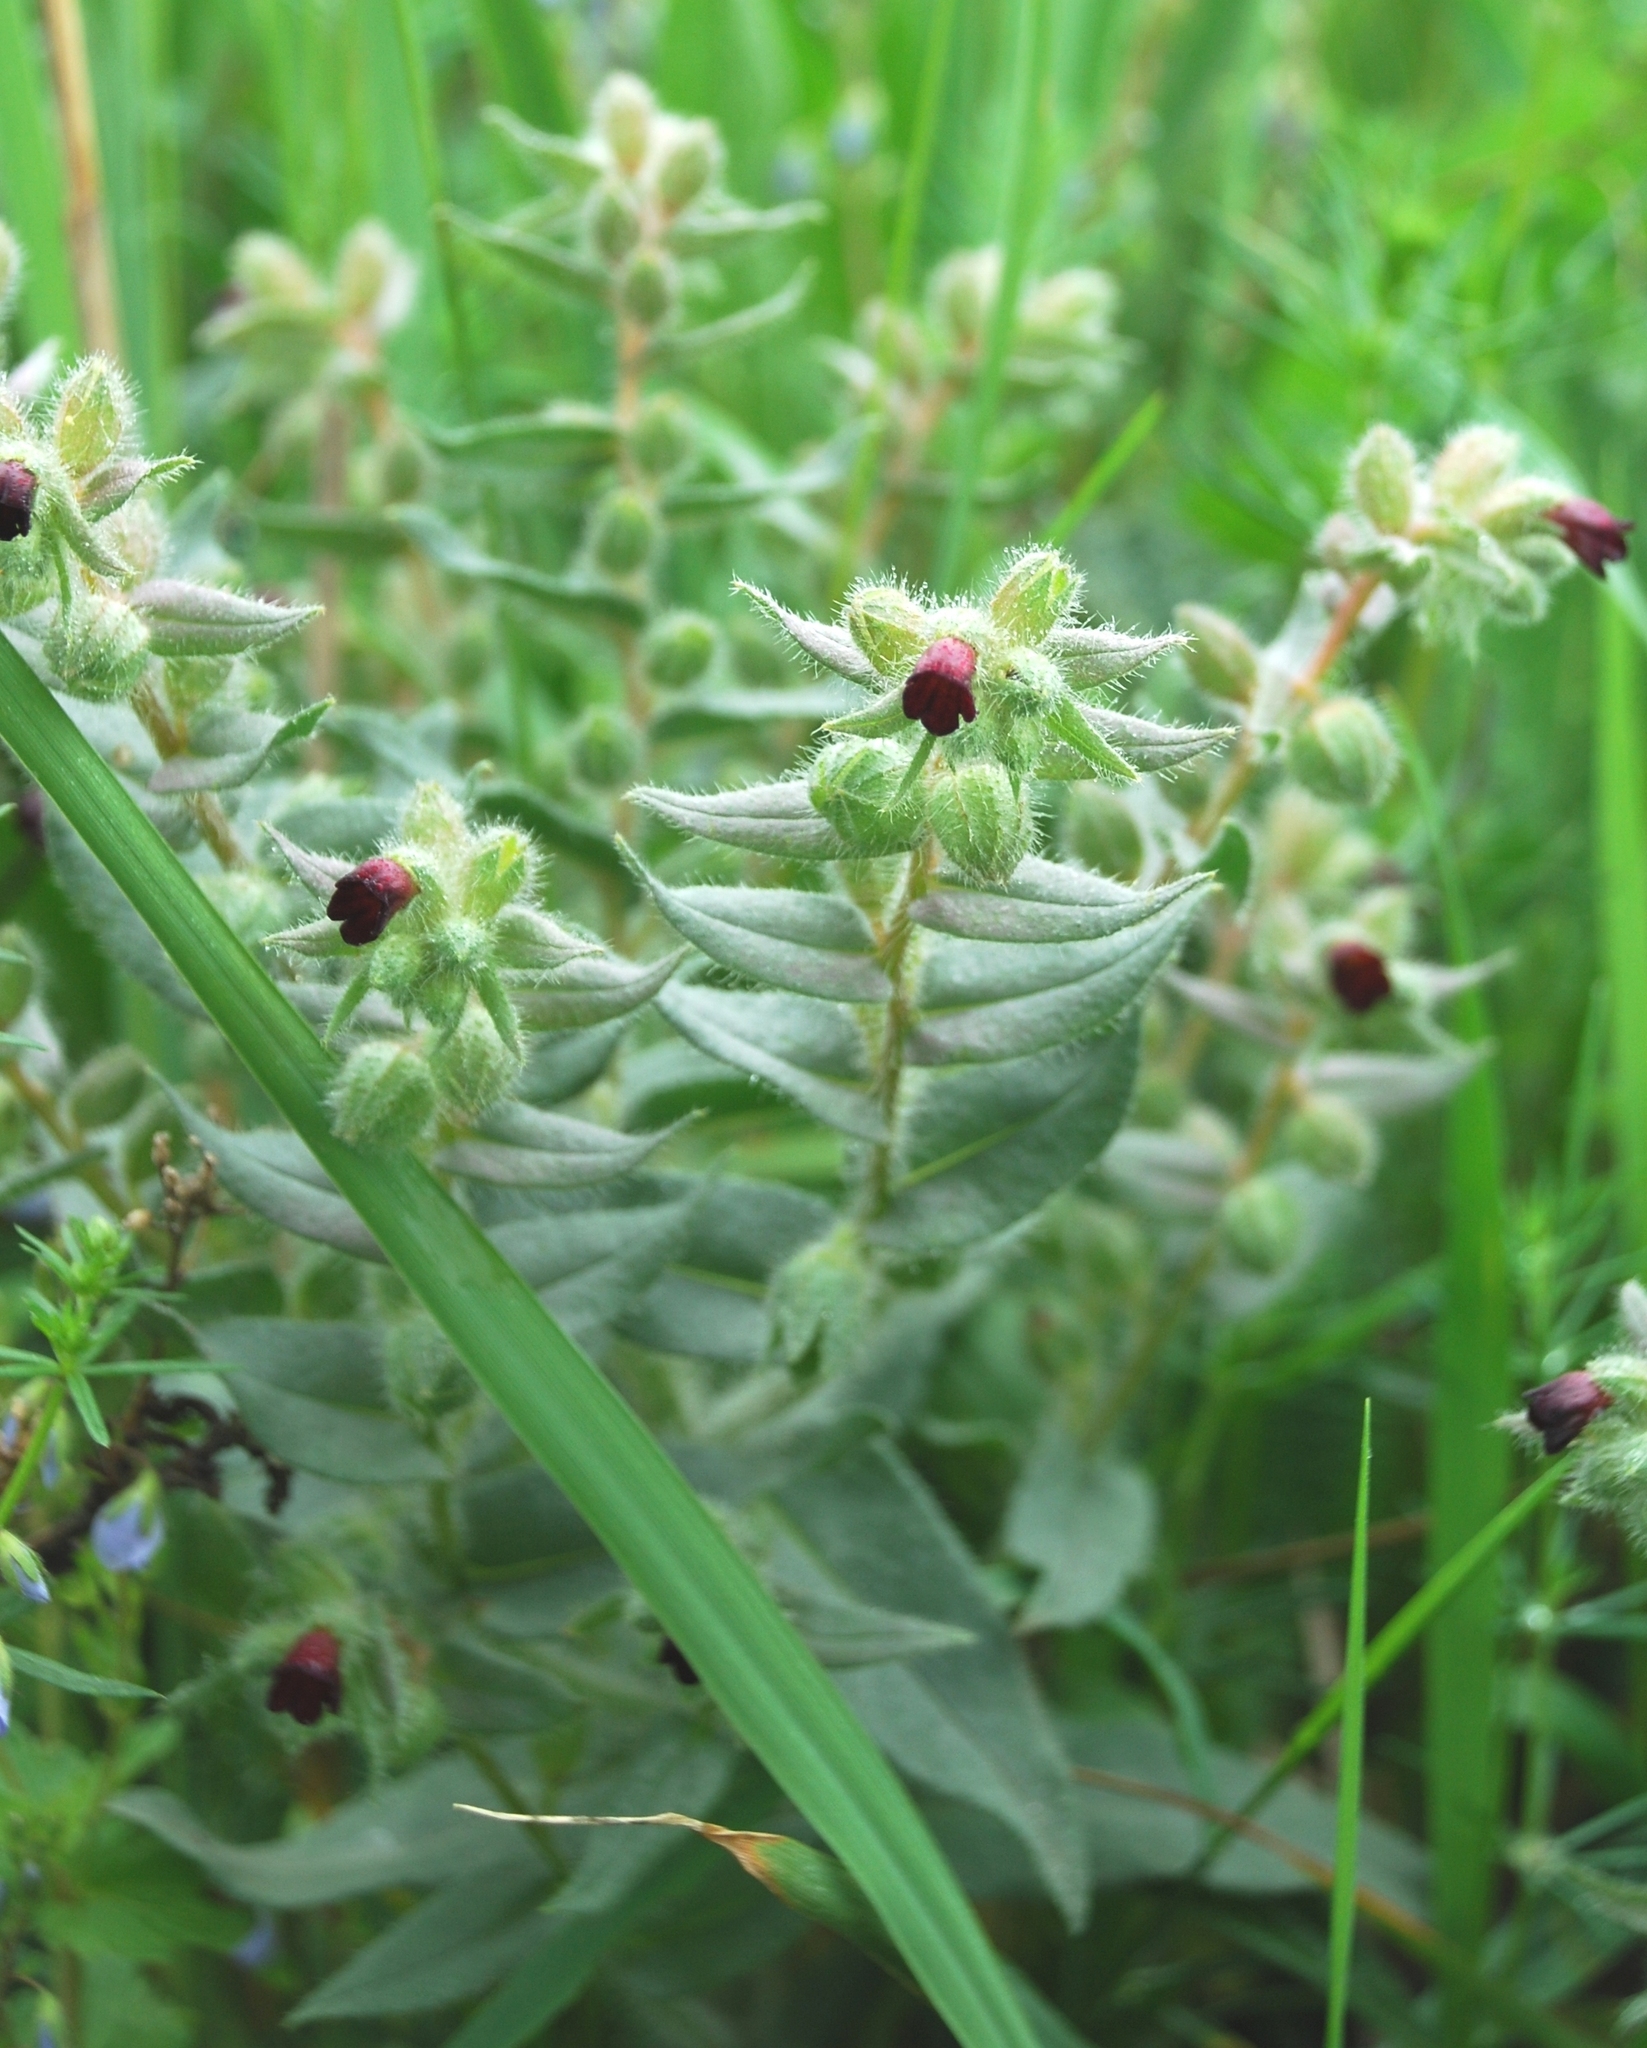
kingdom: Plantae
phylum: Tracheophyta
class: Magnoliopsida
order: Boraginales
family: Boraginaceae
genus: Nonea
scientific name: Nonea pulla
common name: Brown nonea
